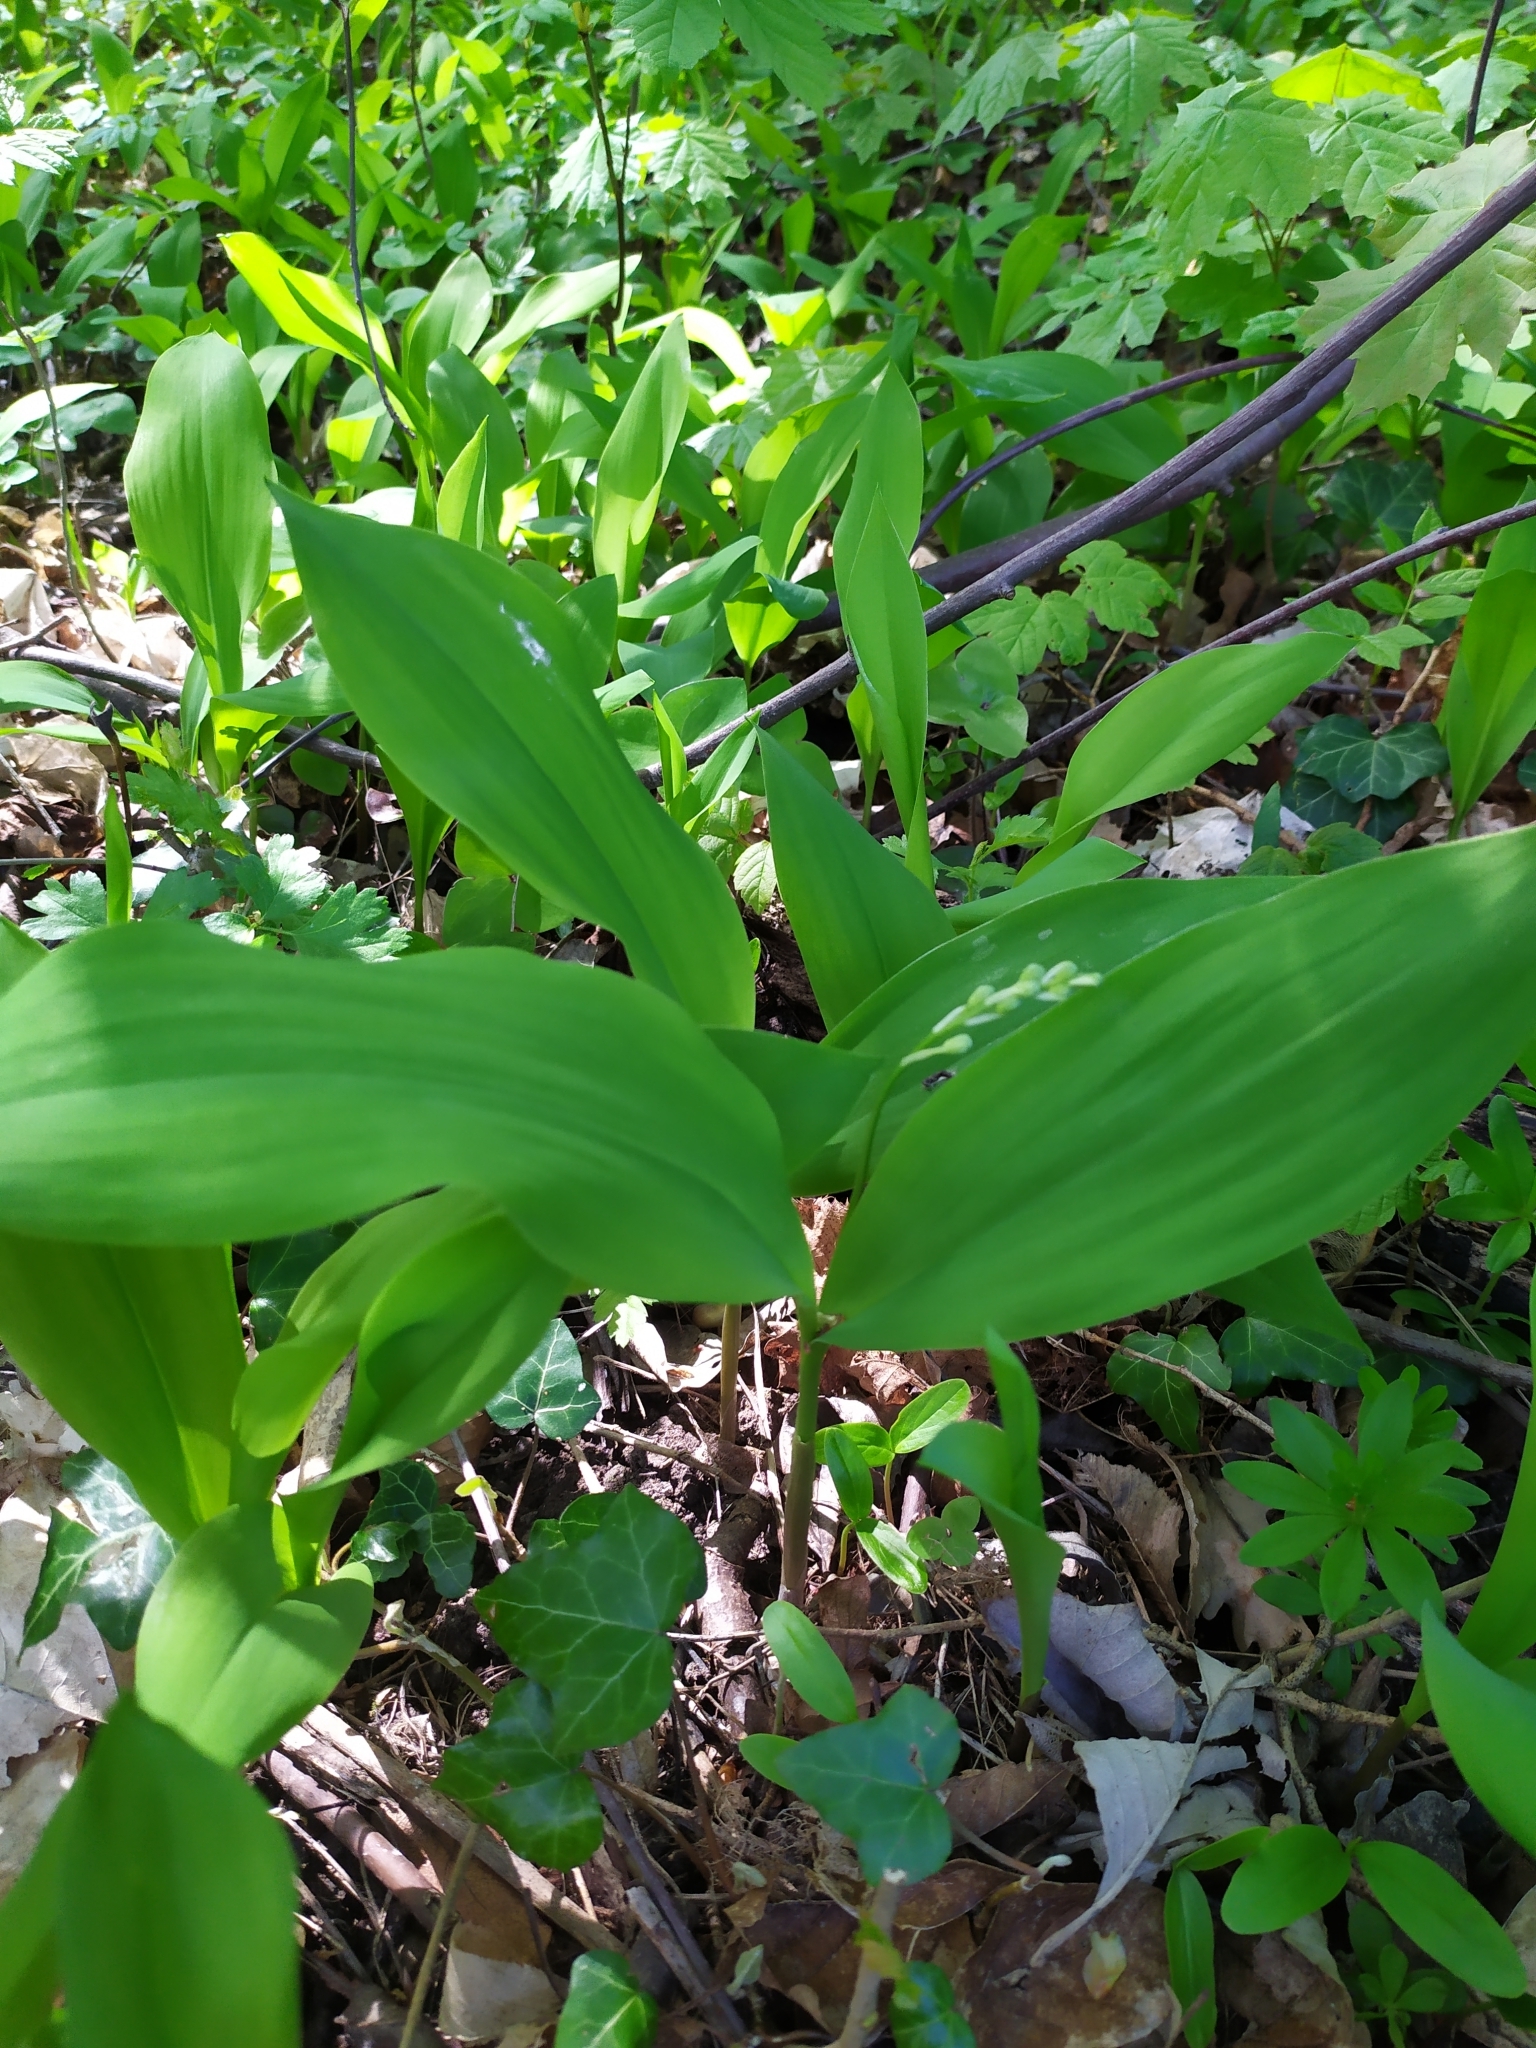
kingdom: Plantae
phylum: Tracheophyta
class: Liliopsida
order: Asparagales
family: Asparagaceae
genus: Convallaria
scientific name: Convallaria majalis
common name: Lily-of-the-valley
